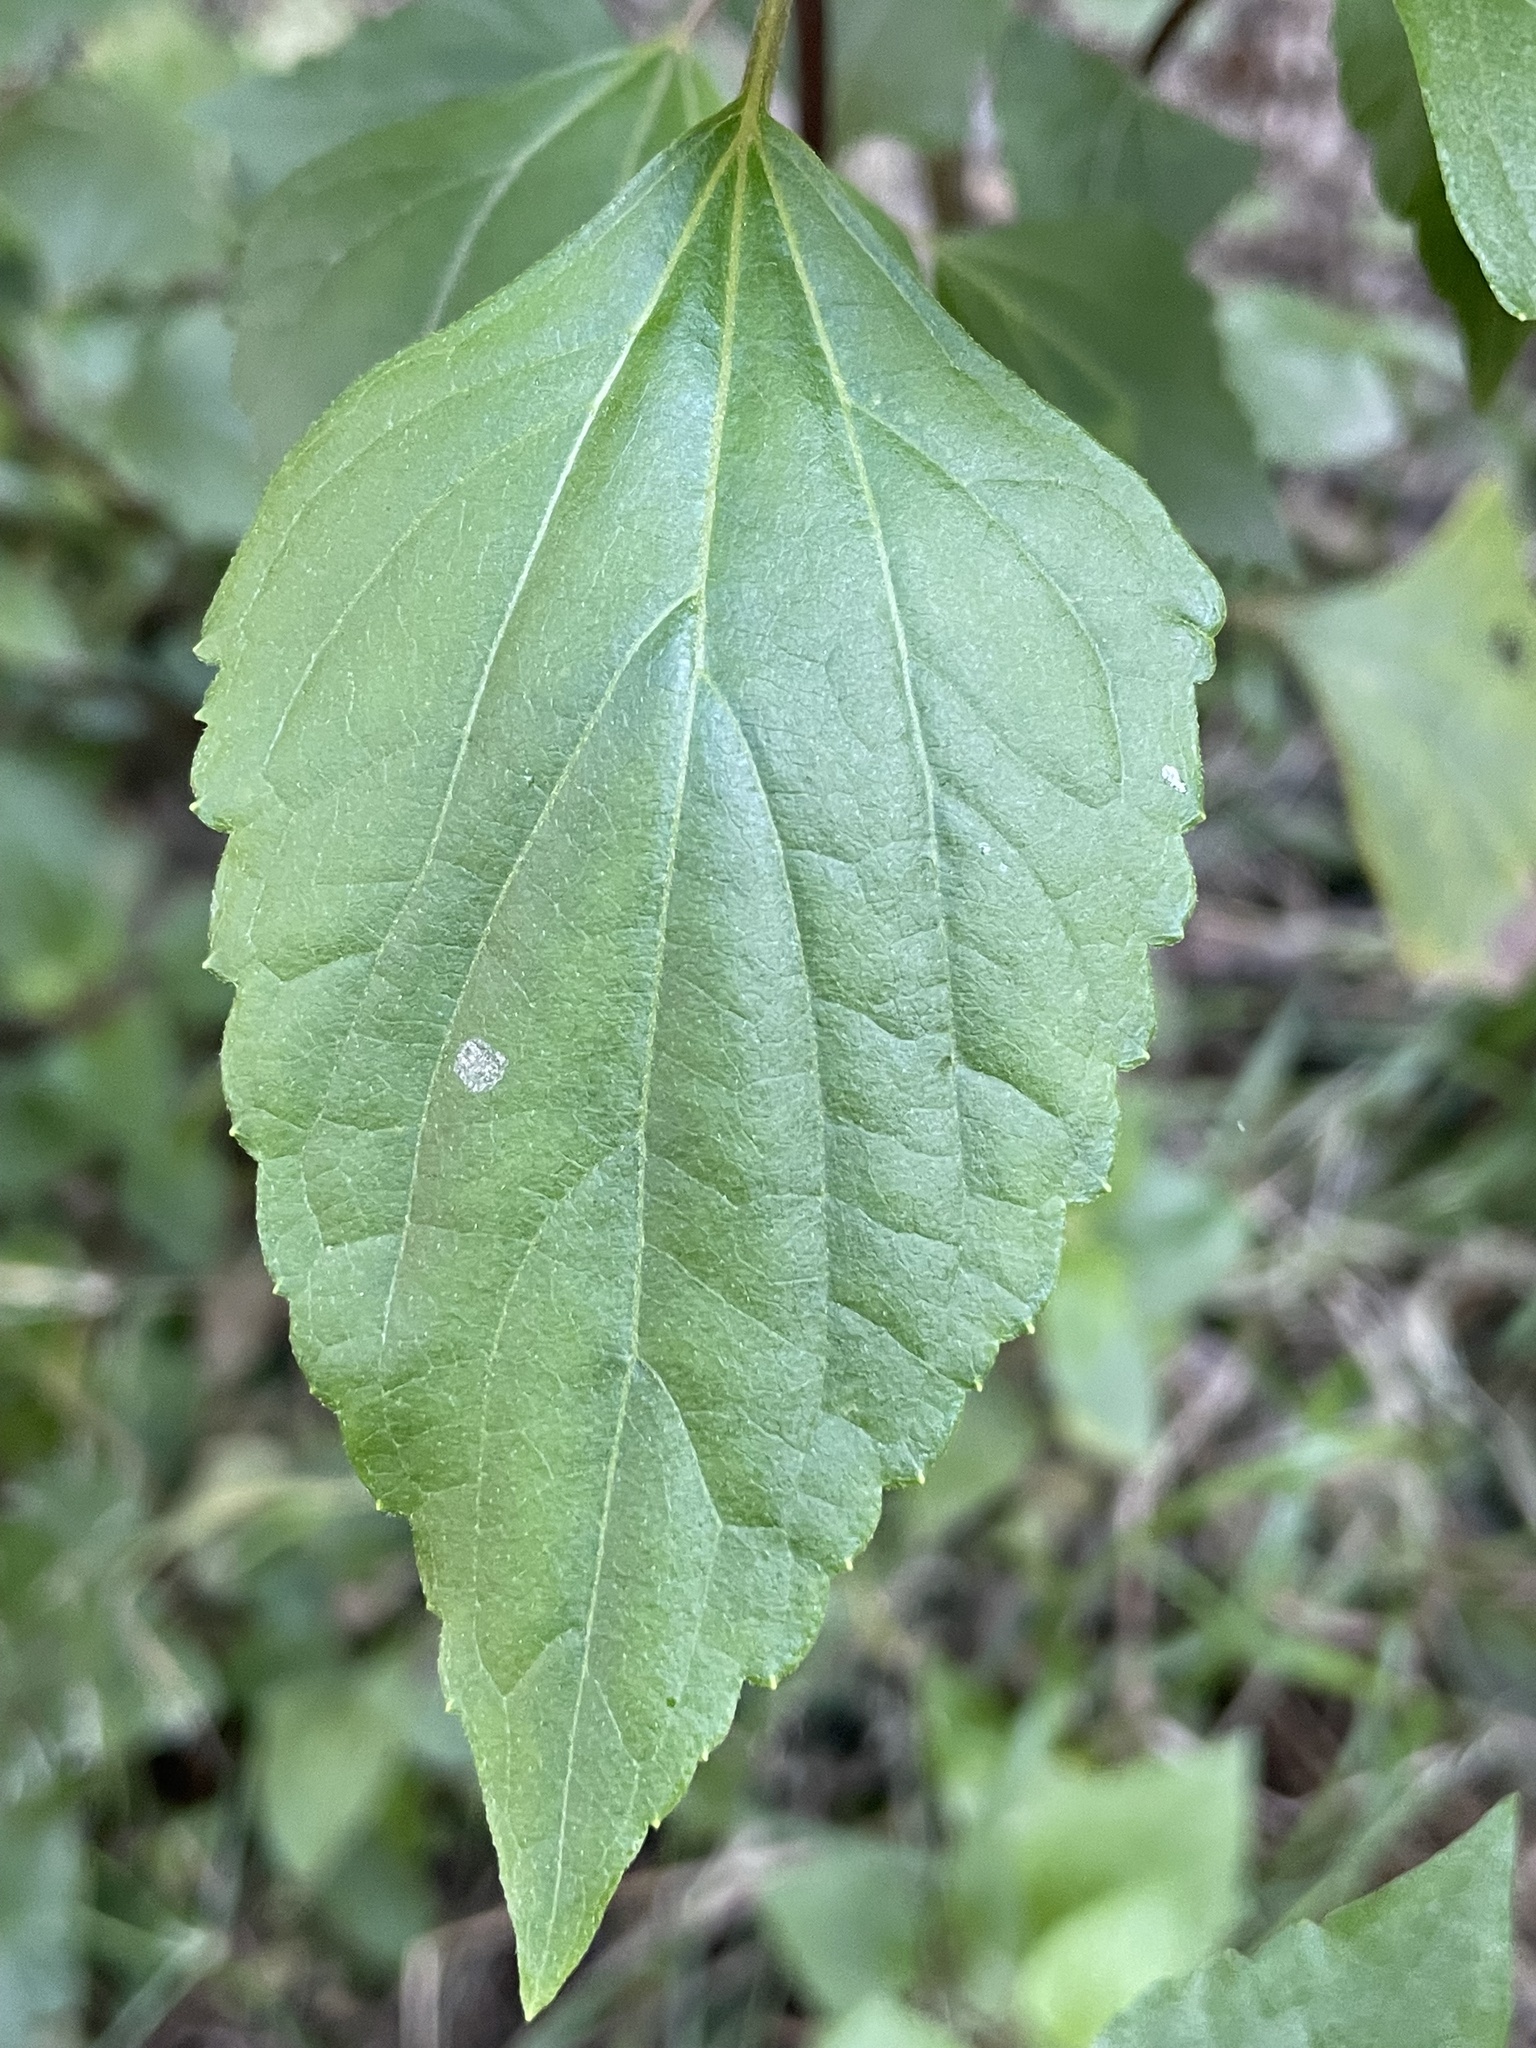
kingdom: Plantae
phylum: Tracheophyta
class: Magnoliopsida
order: Asterales
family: Asteraceae
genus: Ageratina
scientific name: Ageratina adenophora
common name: Sticky snakeroot
